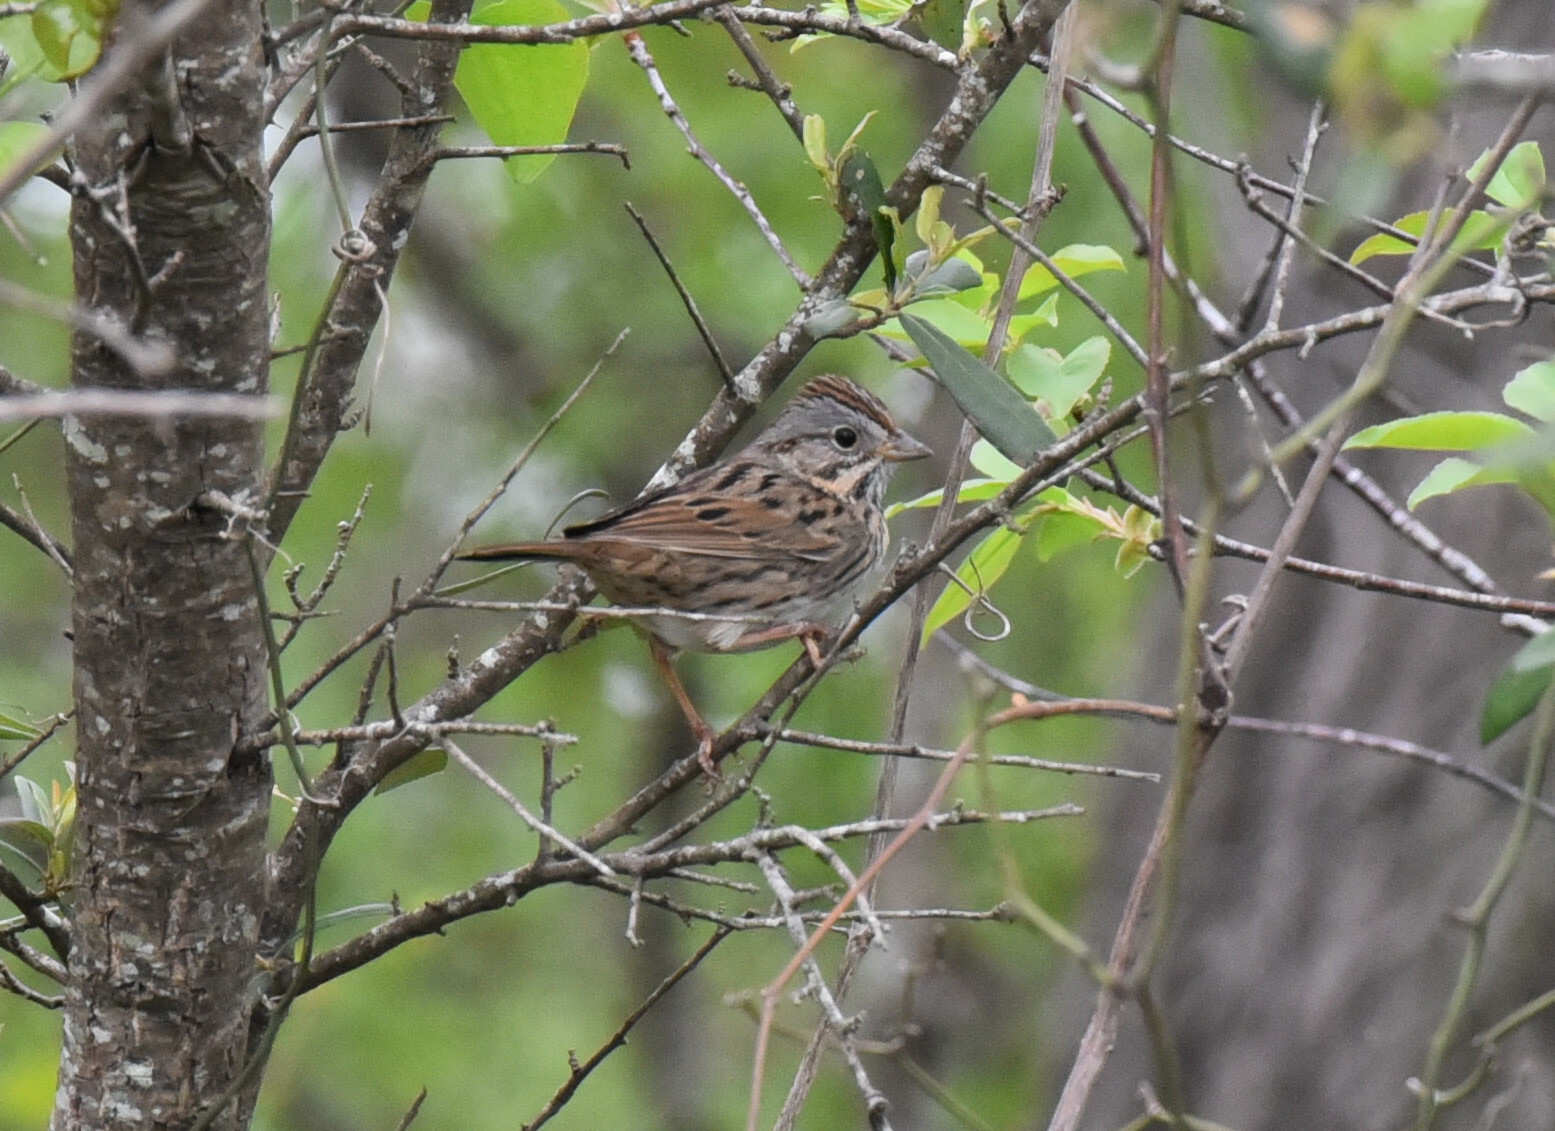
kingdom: Animalia
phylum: Chordata
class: Aves
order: Passeriformes
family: Passerellidae
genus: Melospiza
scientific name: Melospiza lincolnii
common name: Lincoln's sparrow
